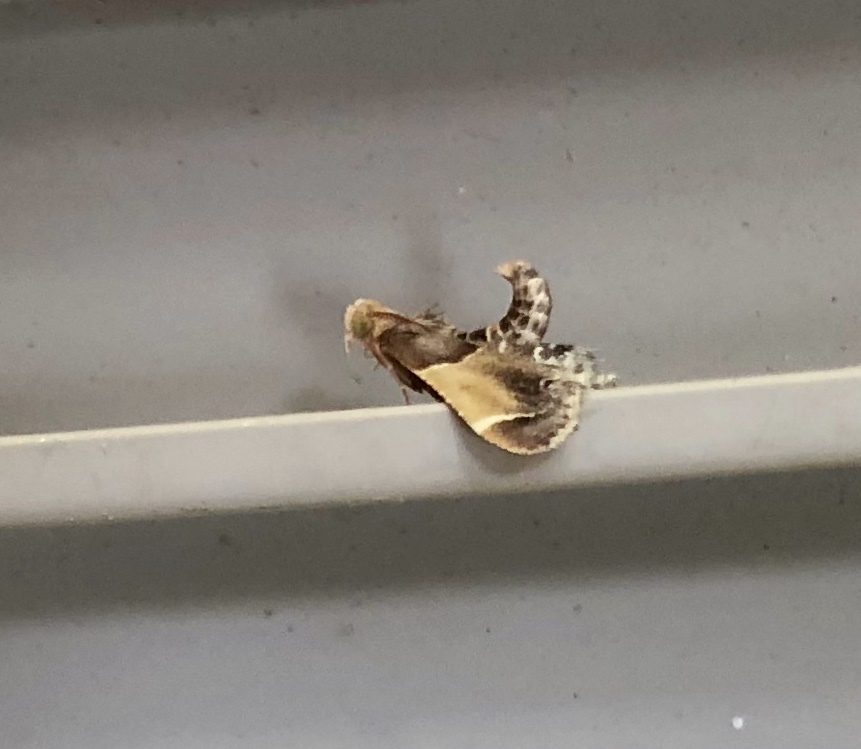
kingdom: Animalia
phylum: Arthropoda
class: Insecta
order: Lepidoptera
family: Pyralidae
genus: Pyralis
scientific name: Pyralis farinalis
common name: Meal moth
